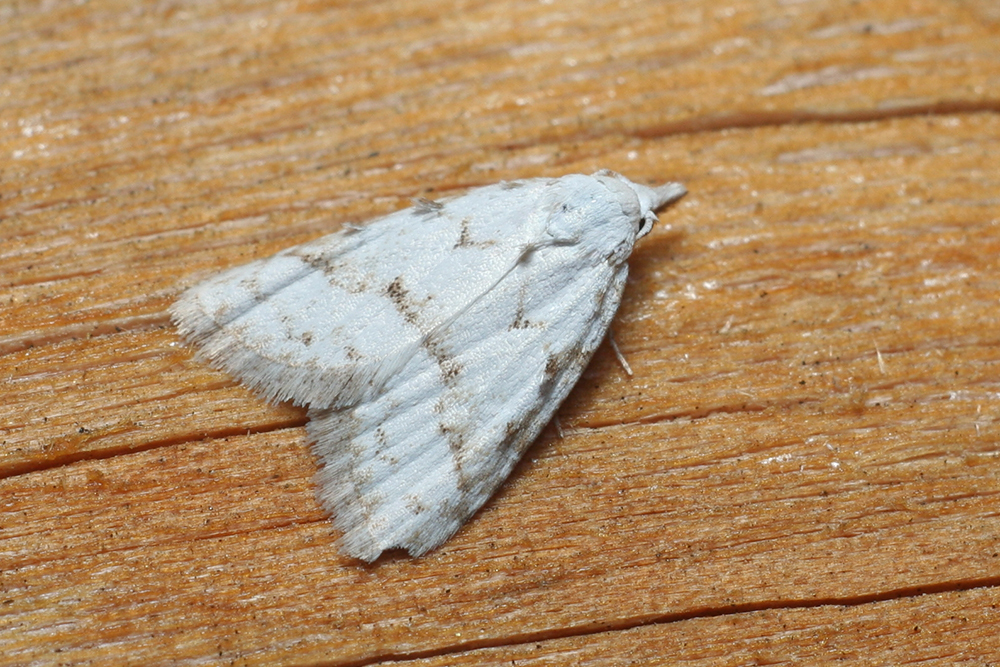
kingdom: Animalia
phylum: Arthropoda
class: Insecta
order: Lepidoptera
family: Nolidae
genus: Nola
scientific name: Nola aerugula
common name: Scarce black arches
